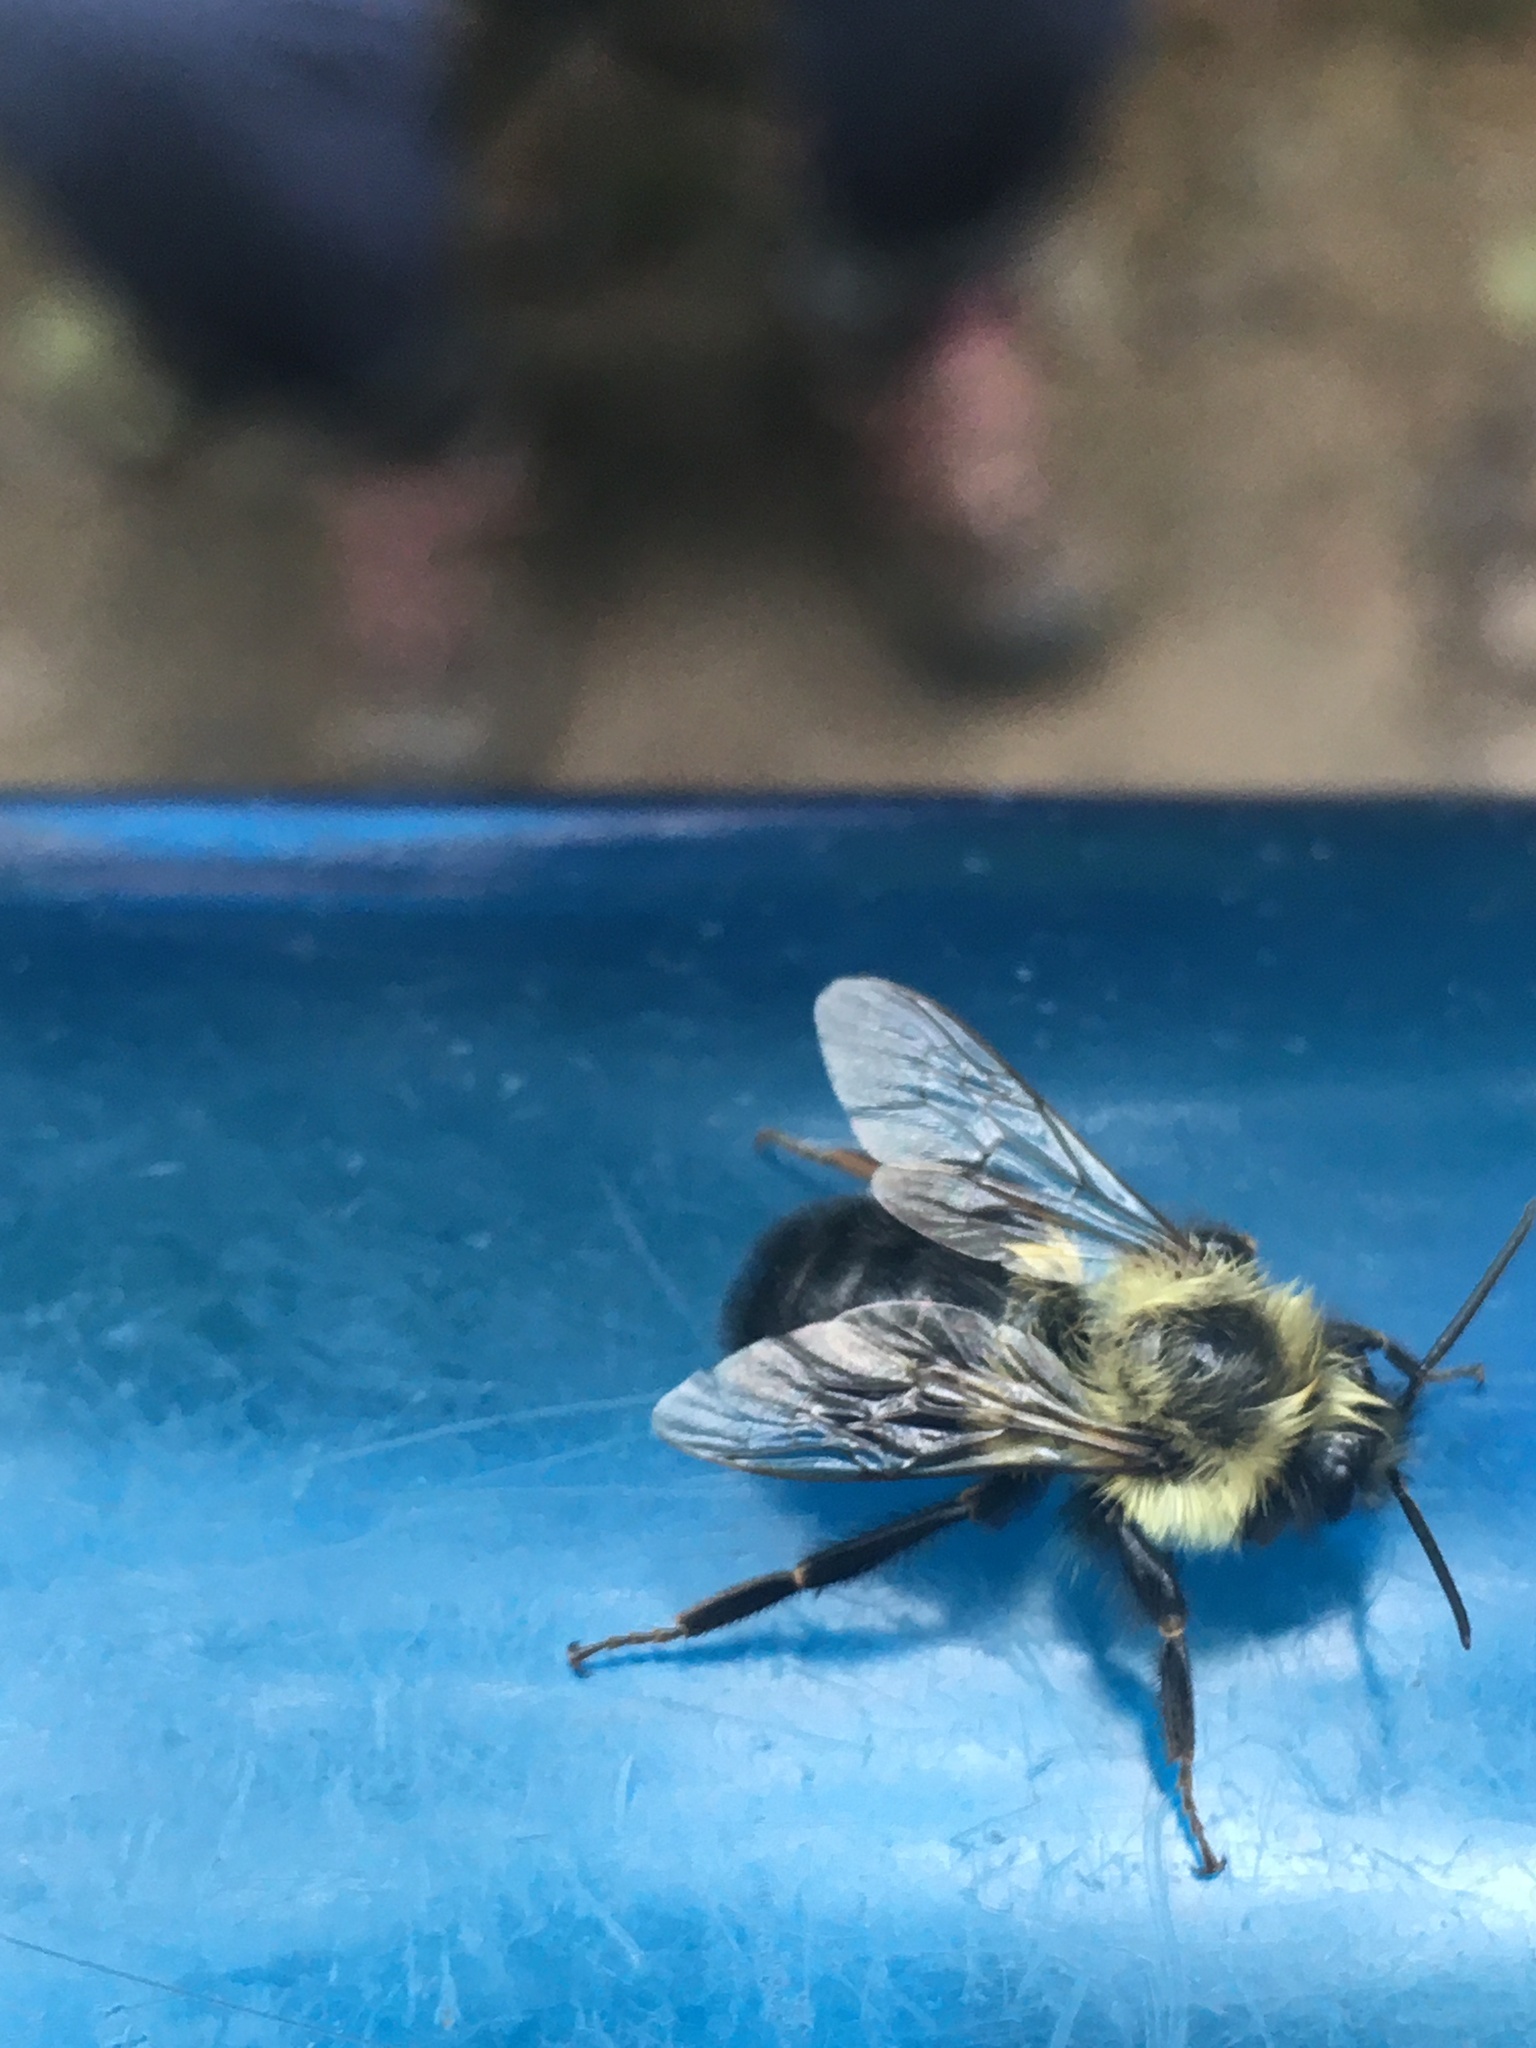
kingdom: Animalia
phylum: Arthropoda
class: Insecta
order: Hymenoptera
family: Apidae
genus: Bombus
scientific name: Bombus impatiens
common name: Common eastern bumble bee
